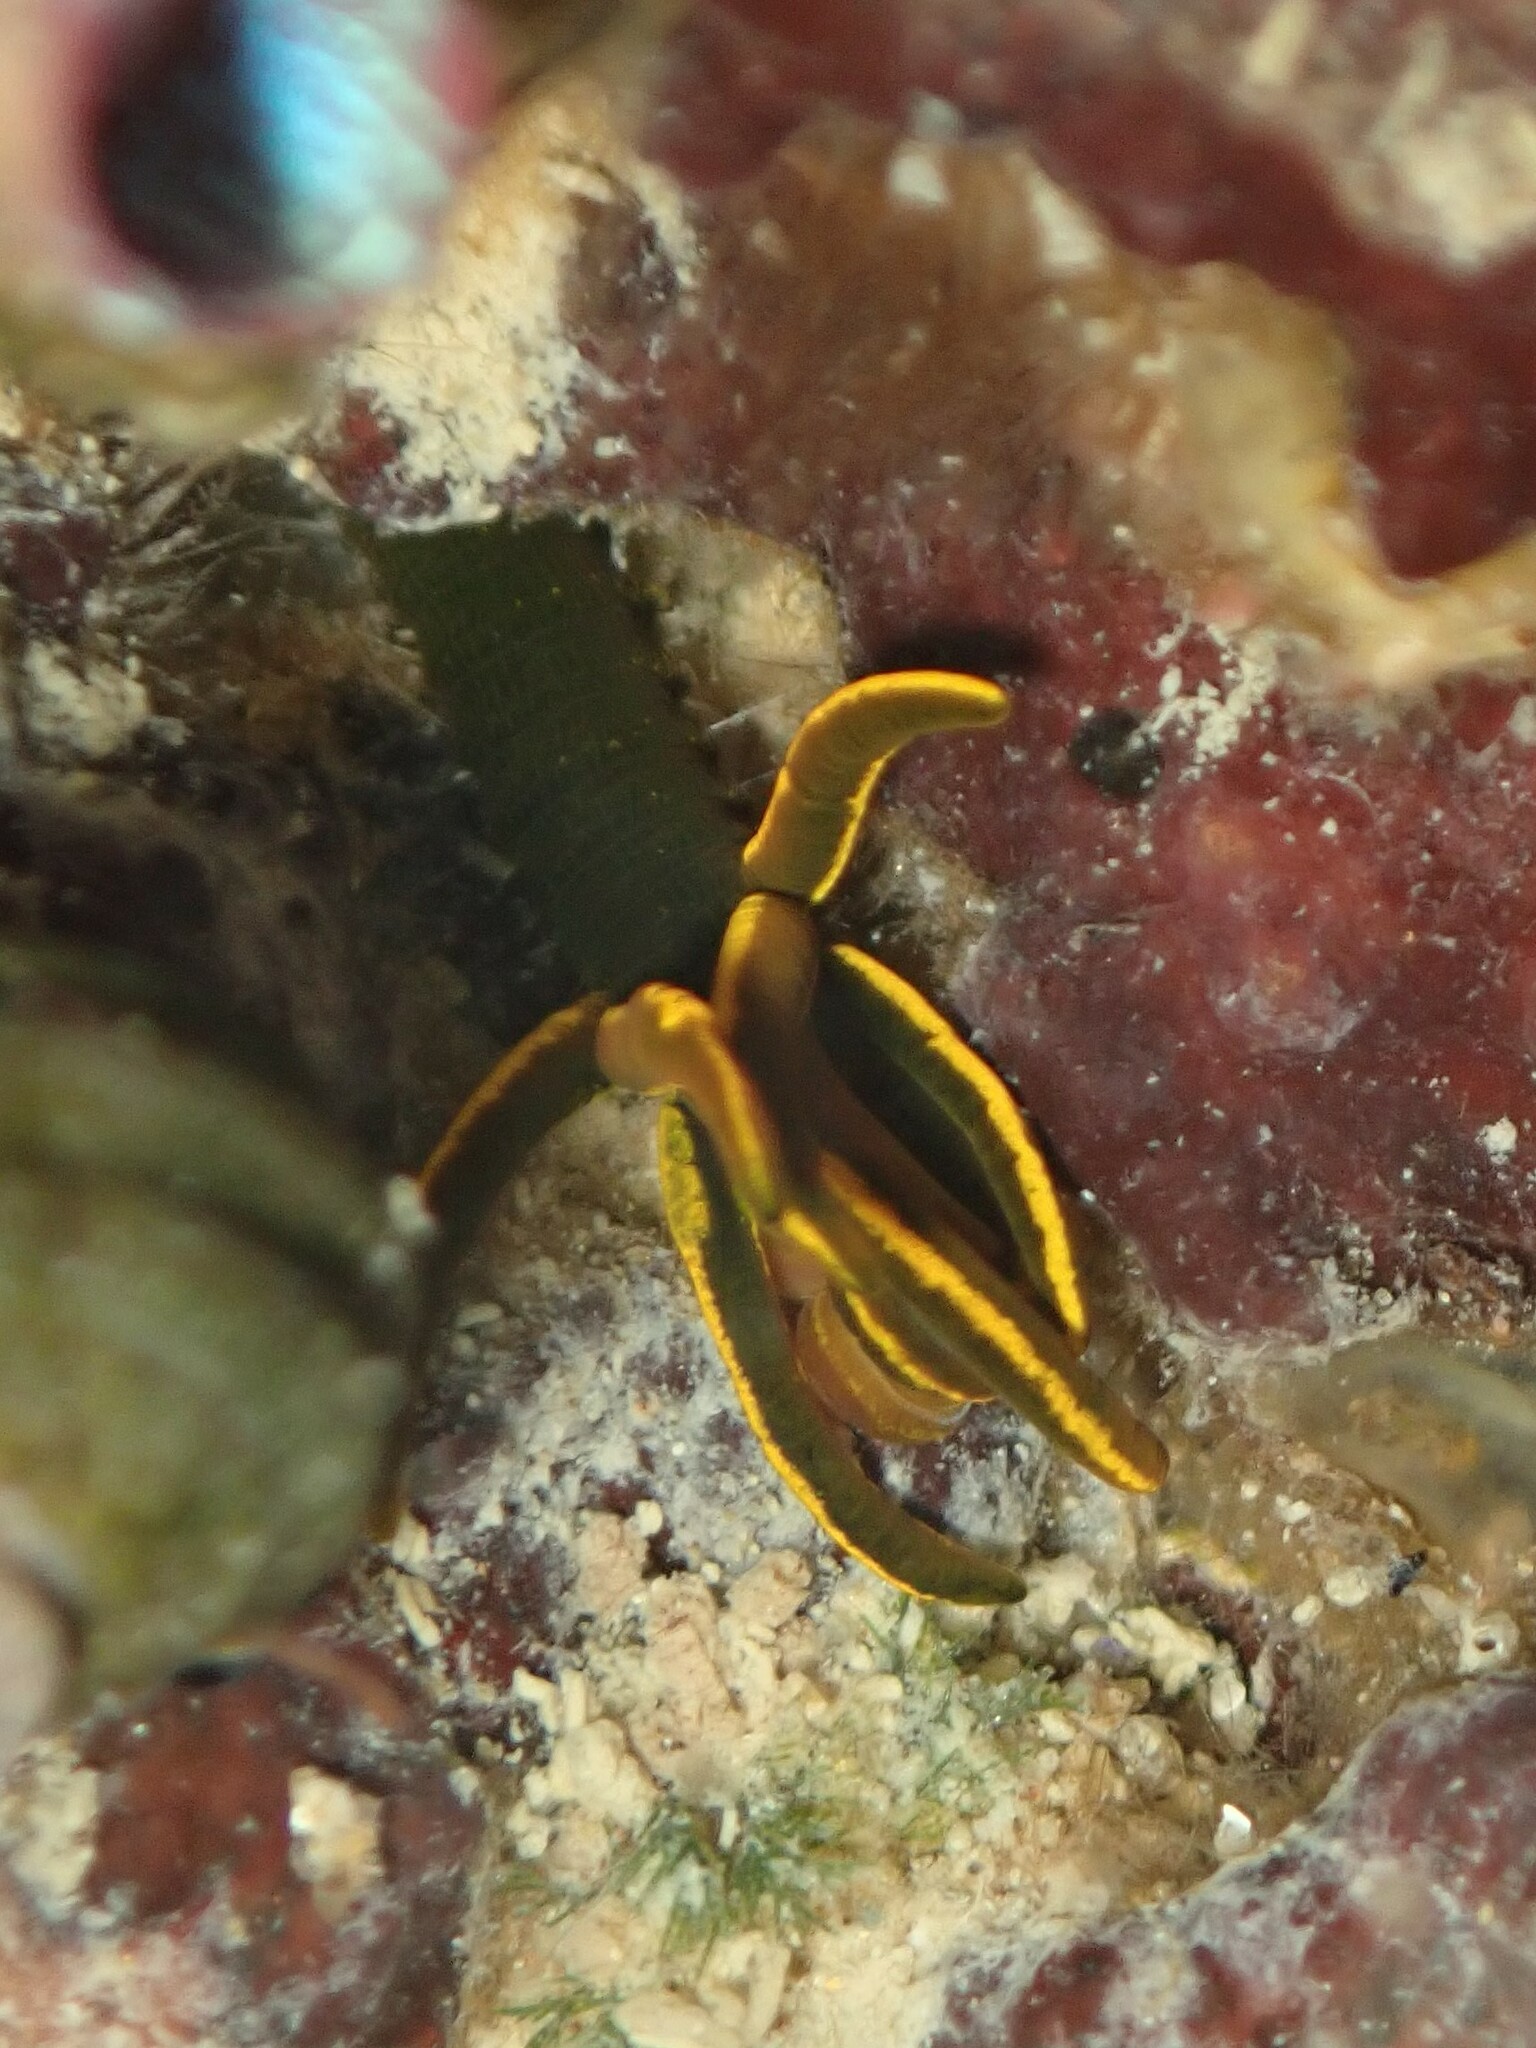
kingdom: Animalia
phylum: Annelida
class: Polychaeta
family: Acrocirridae
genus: Acrocirrus
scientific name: Acrocirrus
